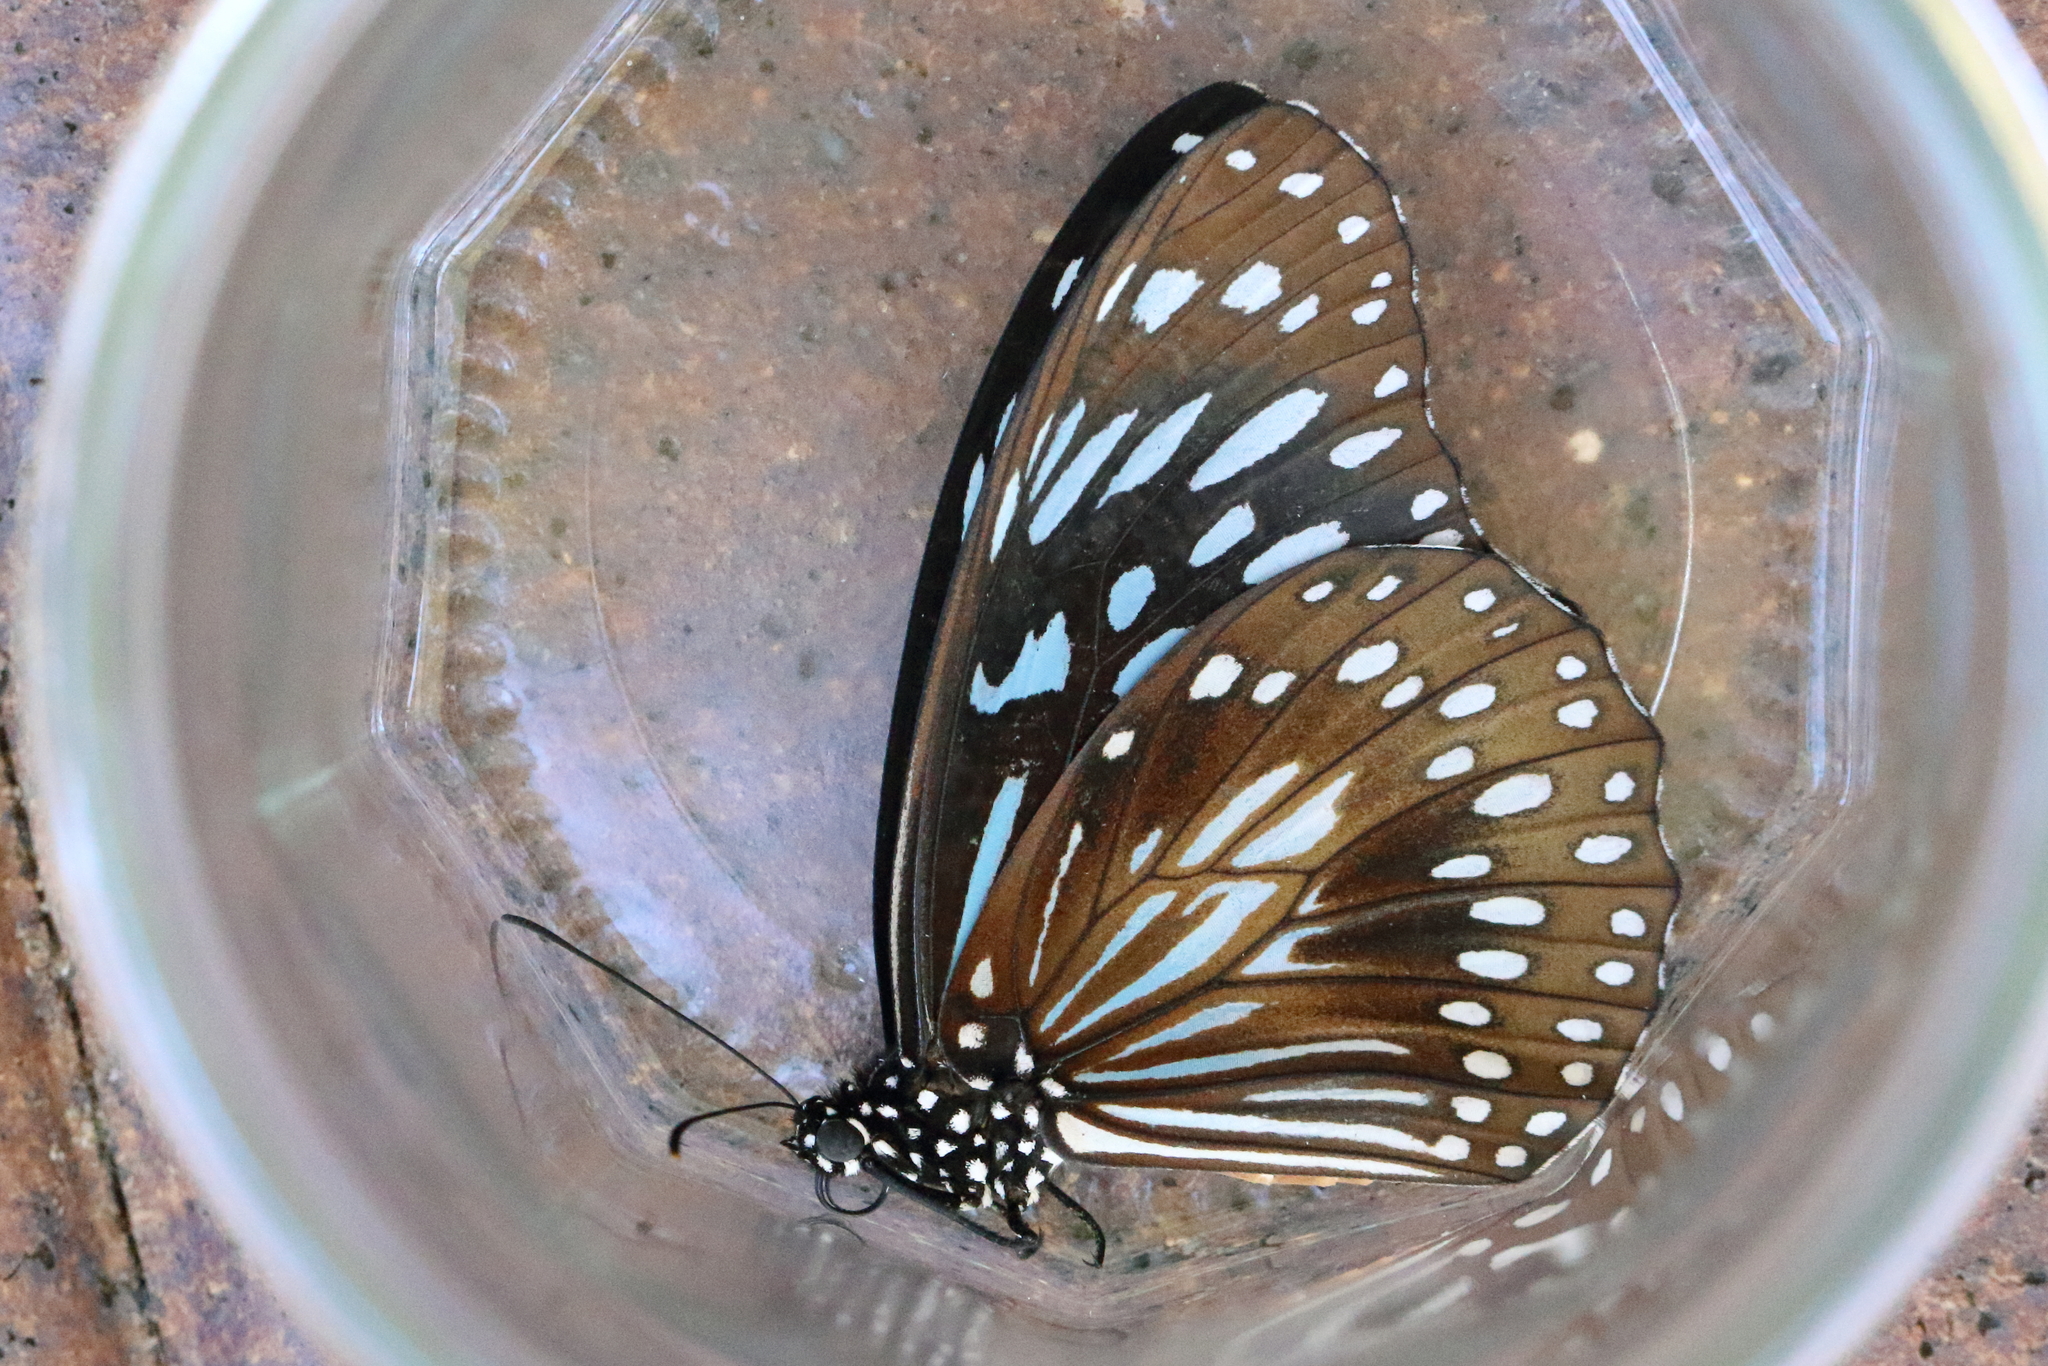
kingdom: Animalia
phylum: Arthropoda
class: Insecta
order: Lepidoptera
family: Nymphalidae
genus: Tirumala
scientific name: Tirumala hamata
